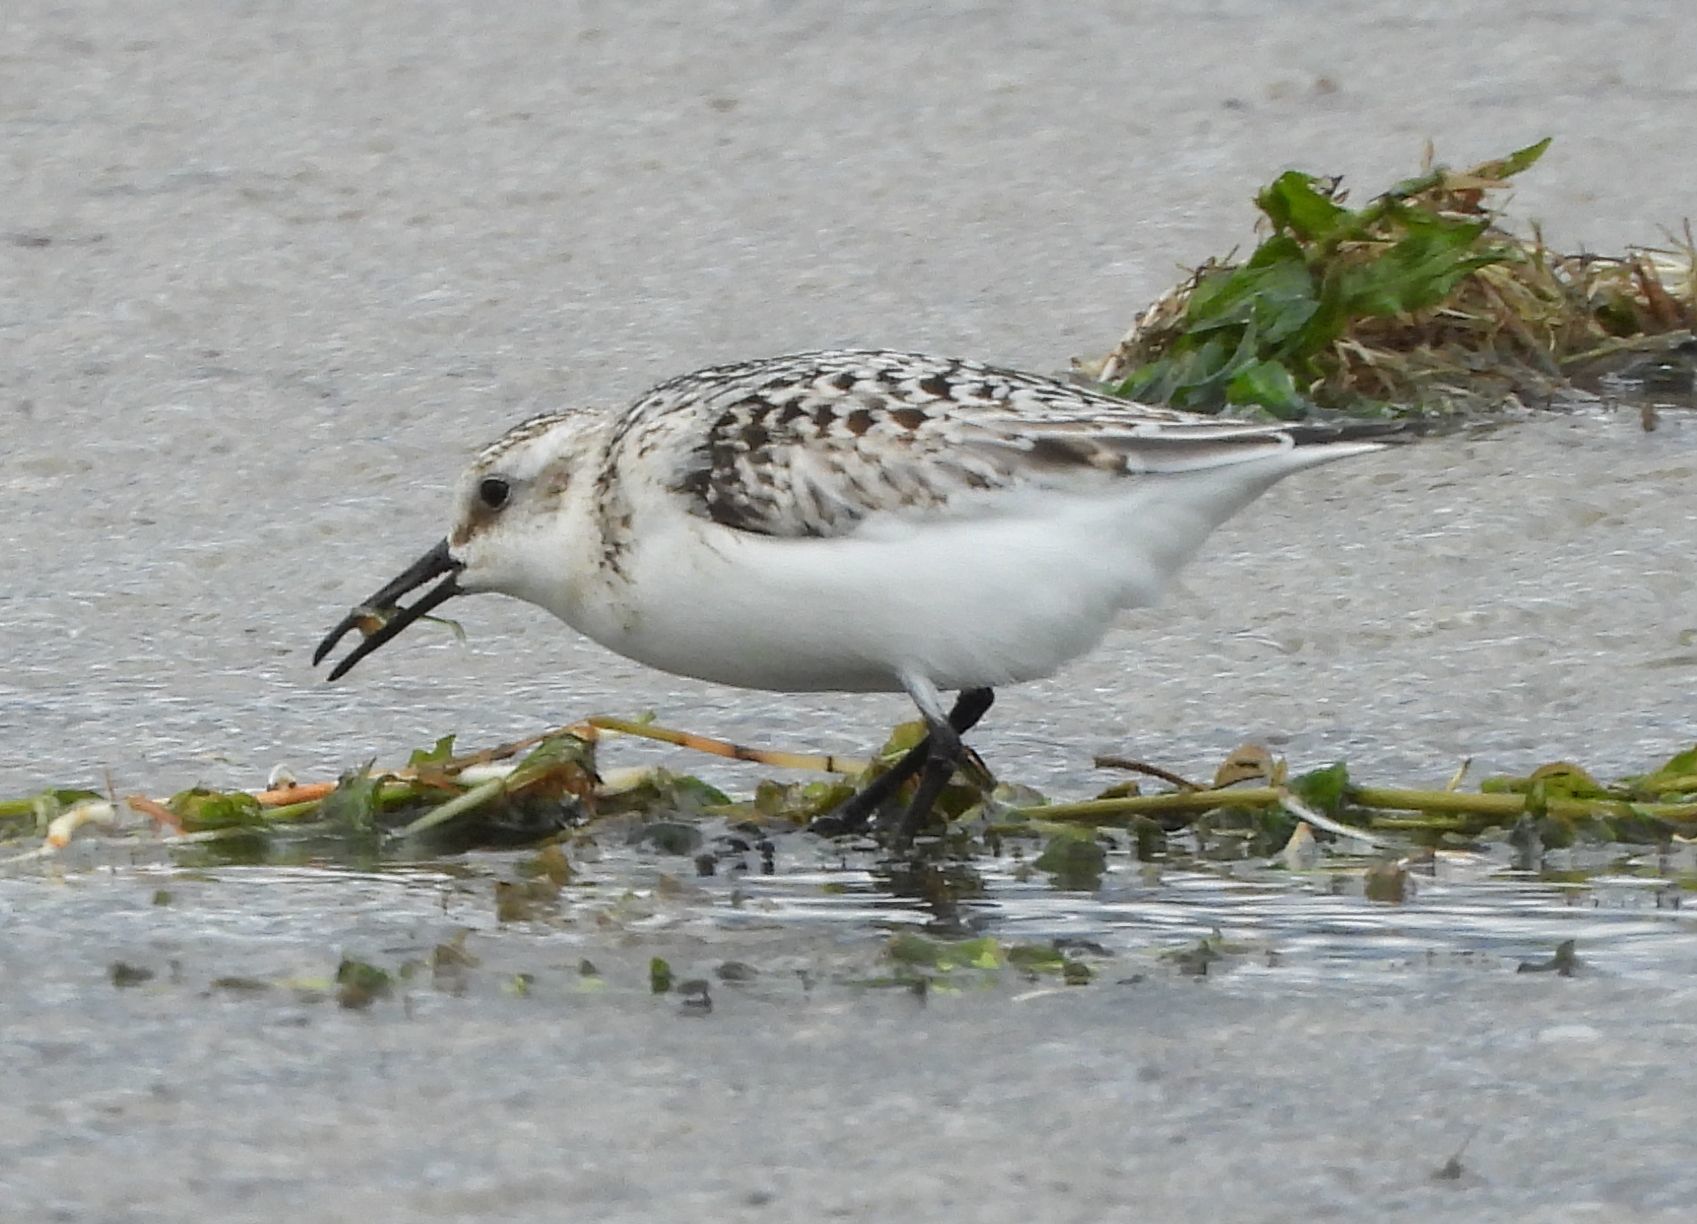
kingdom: Animalia
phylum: Chordata
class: Aves
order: Charadriiformes
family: Scolopacidae
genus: Calidris
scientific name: Calidris alba
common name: Sanderling
